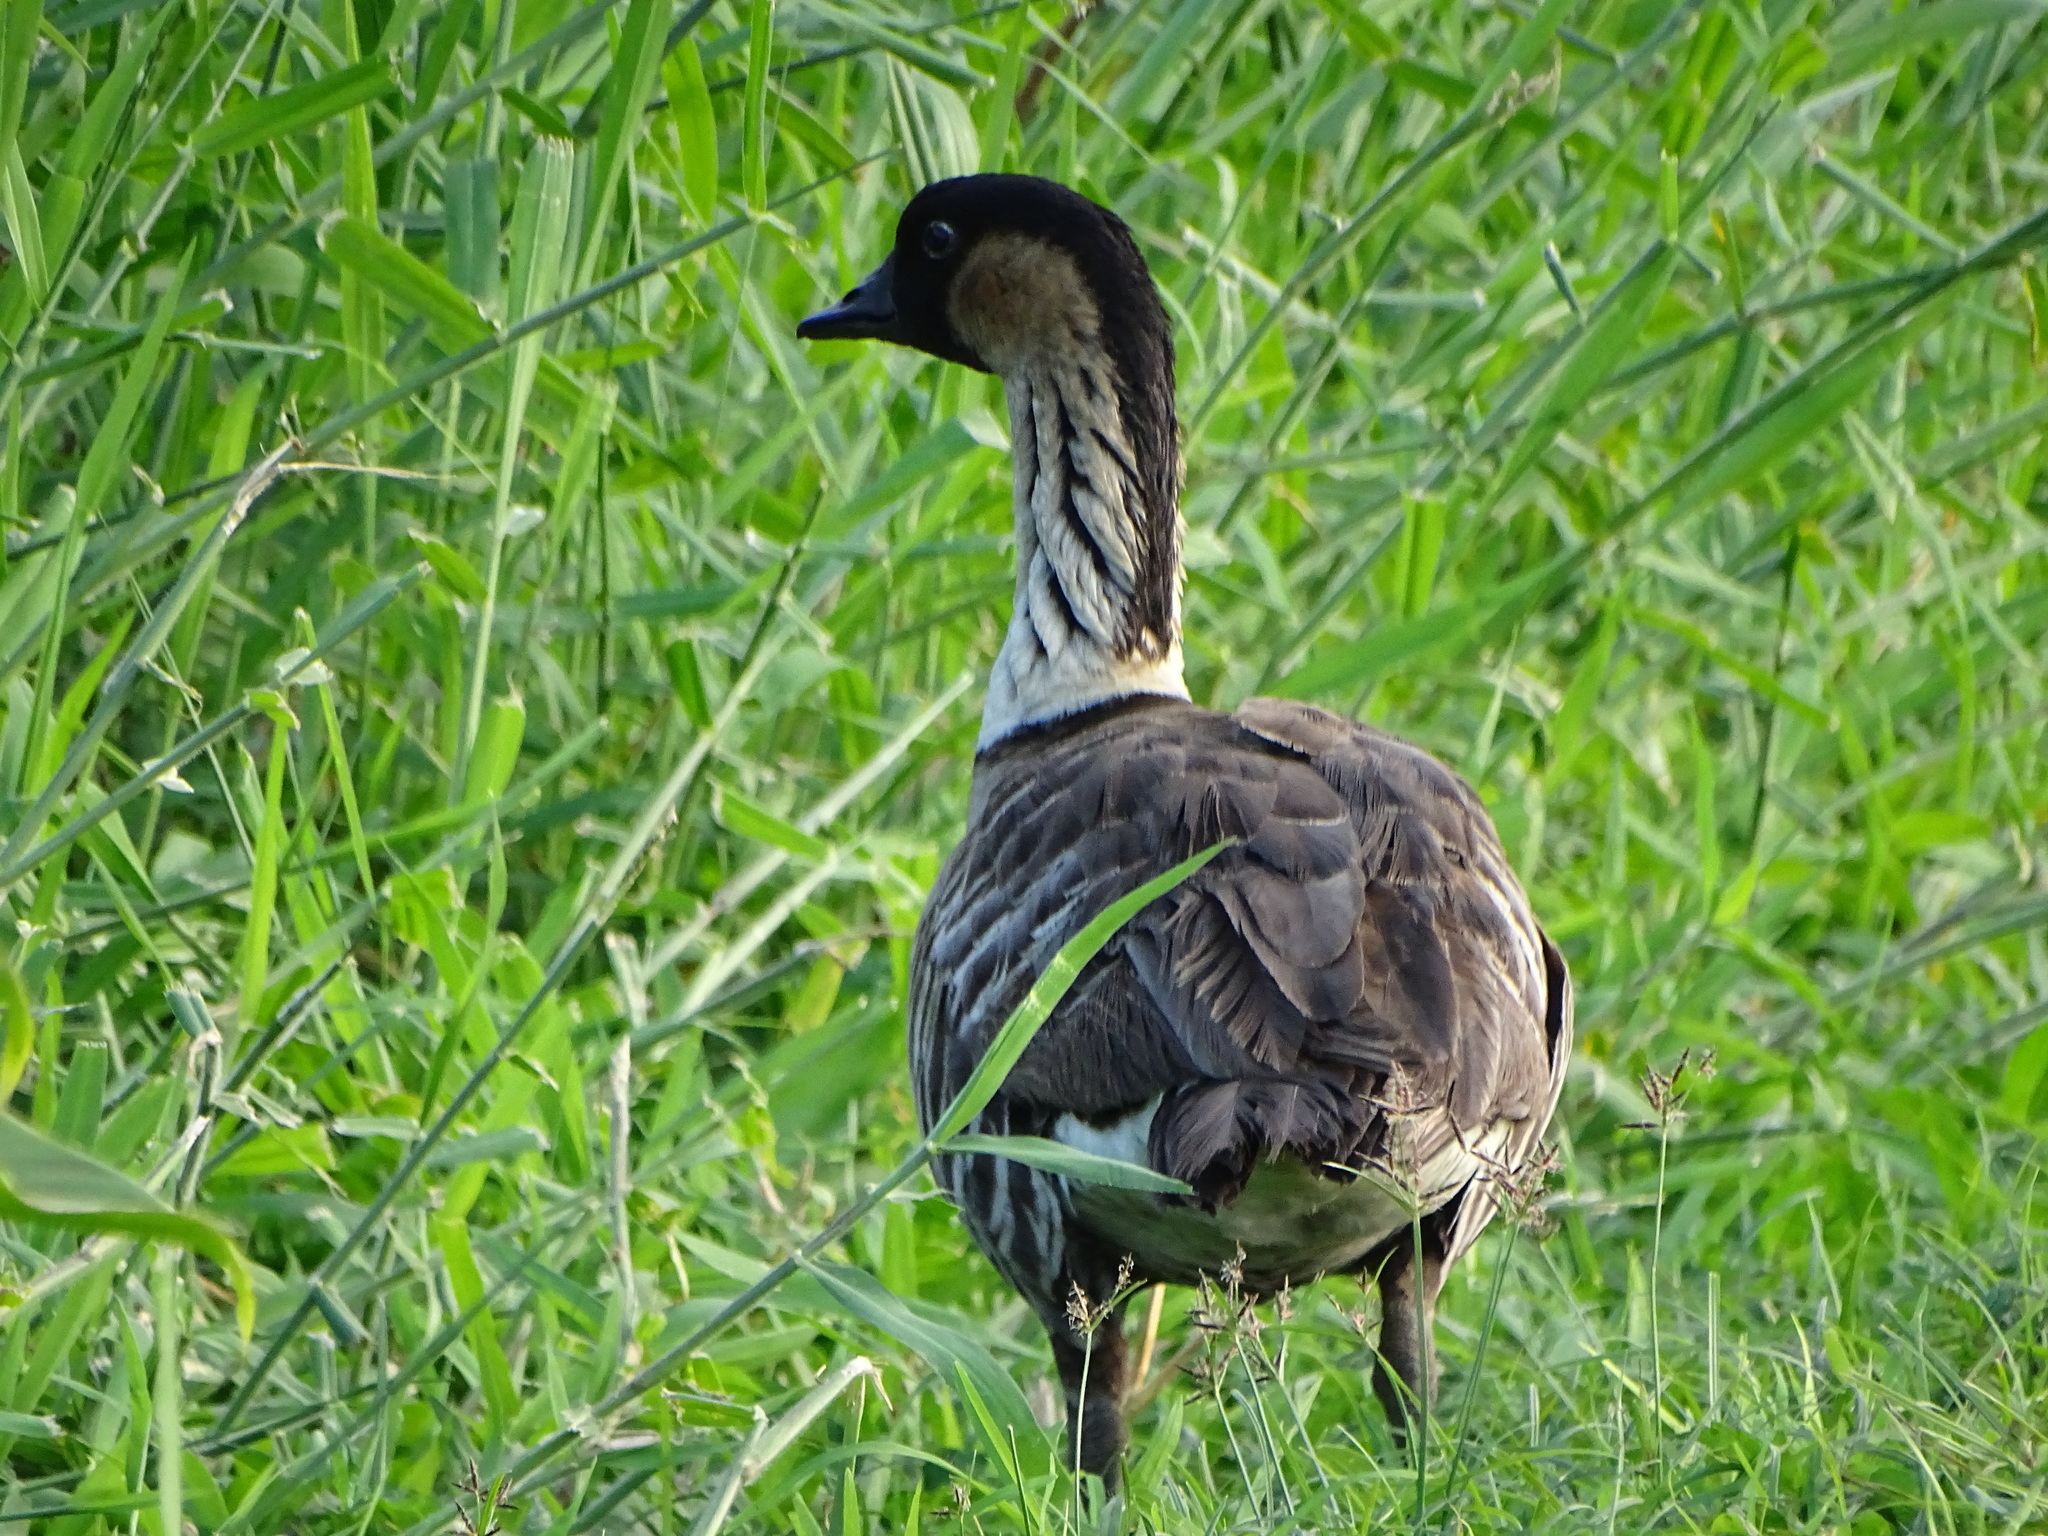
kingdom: Animalia
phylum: Chordata
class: Aves
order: Anseriformes
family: Anatidae
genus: Branta
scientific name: Branta sandvicensis
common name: Nene
